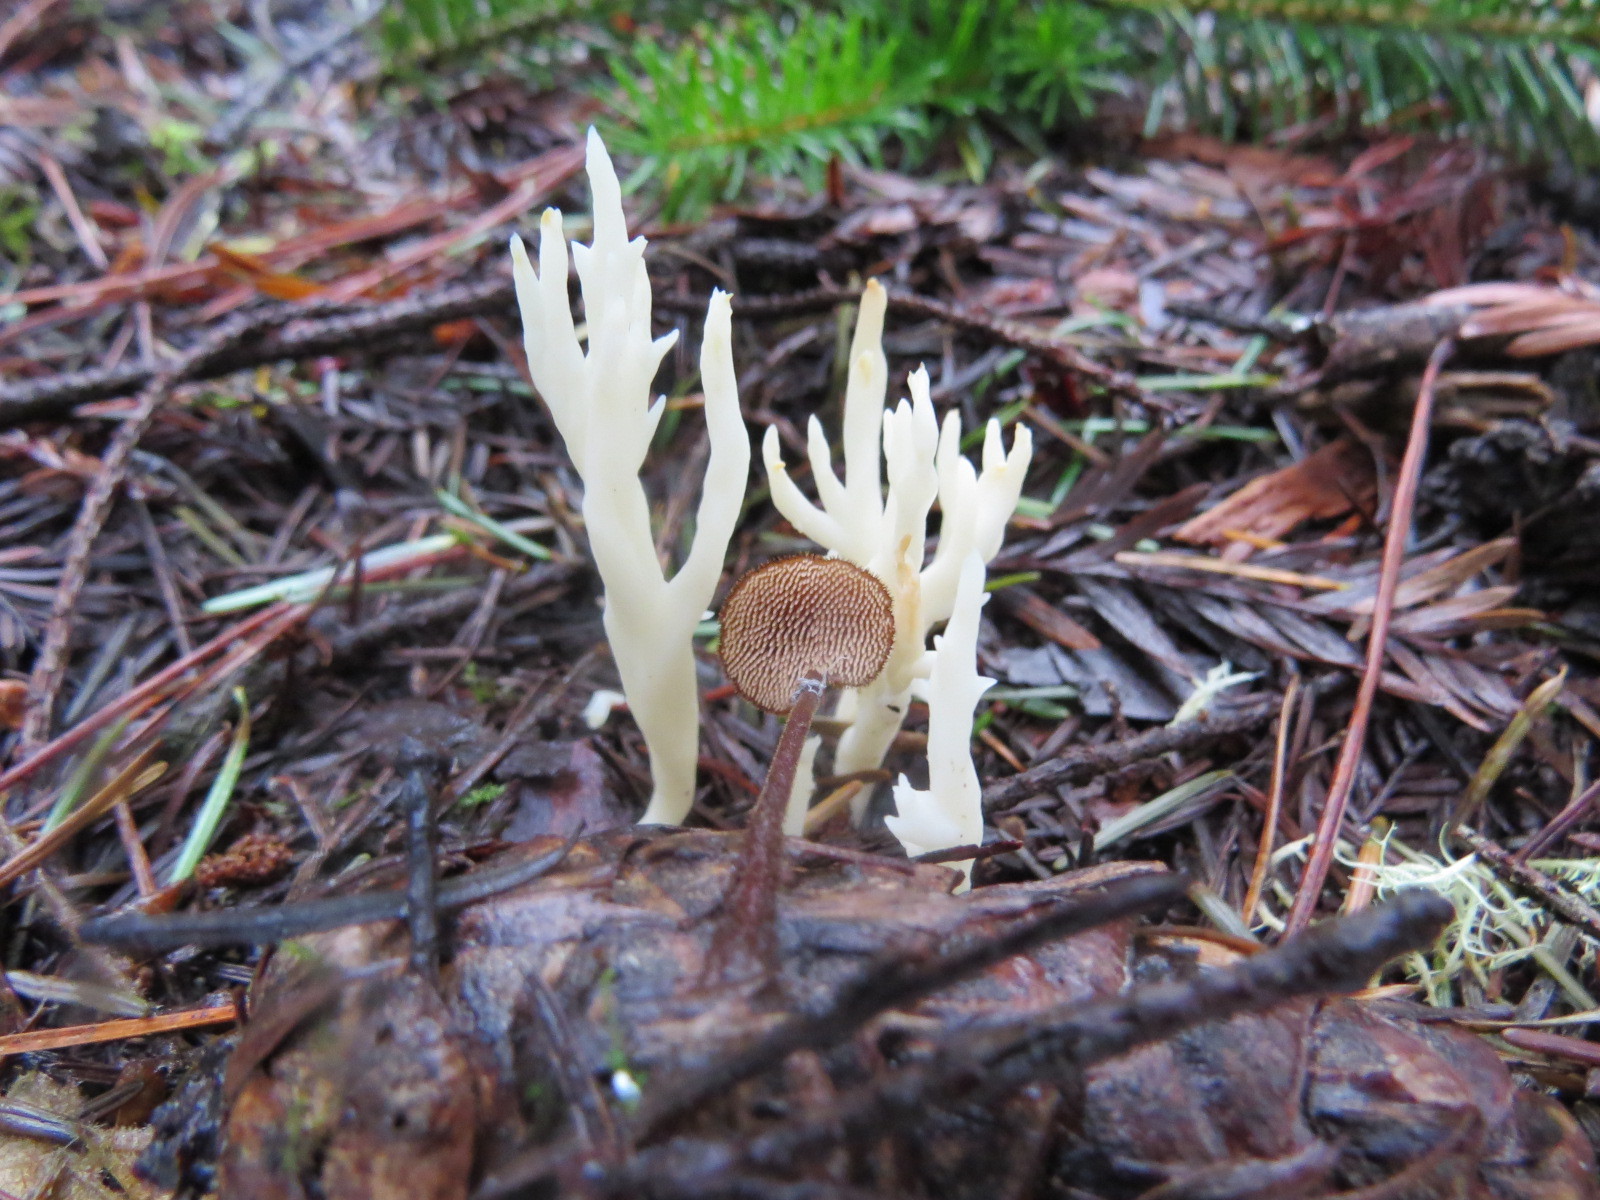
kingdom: Fungi
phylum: Basidiomycota
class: Agaricomycetes
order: Russulales
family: Auriscalpiaceae
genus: Auriscalpium
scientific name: Auriscalpium vulgare
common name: Earpick fungus
